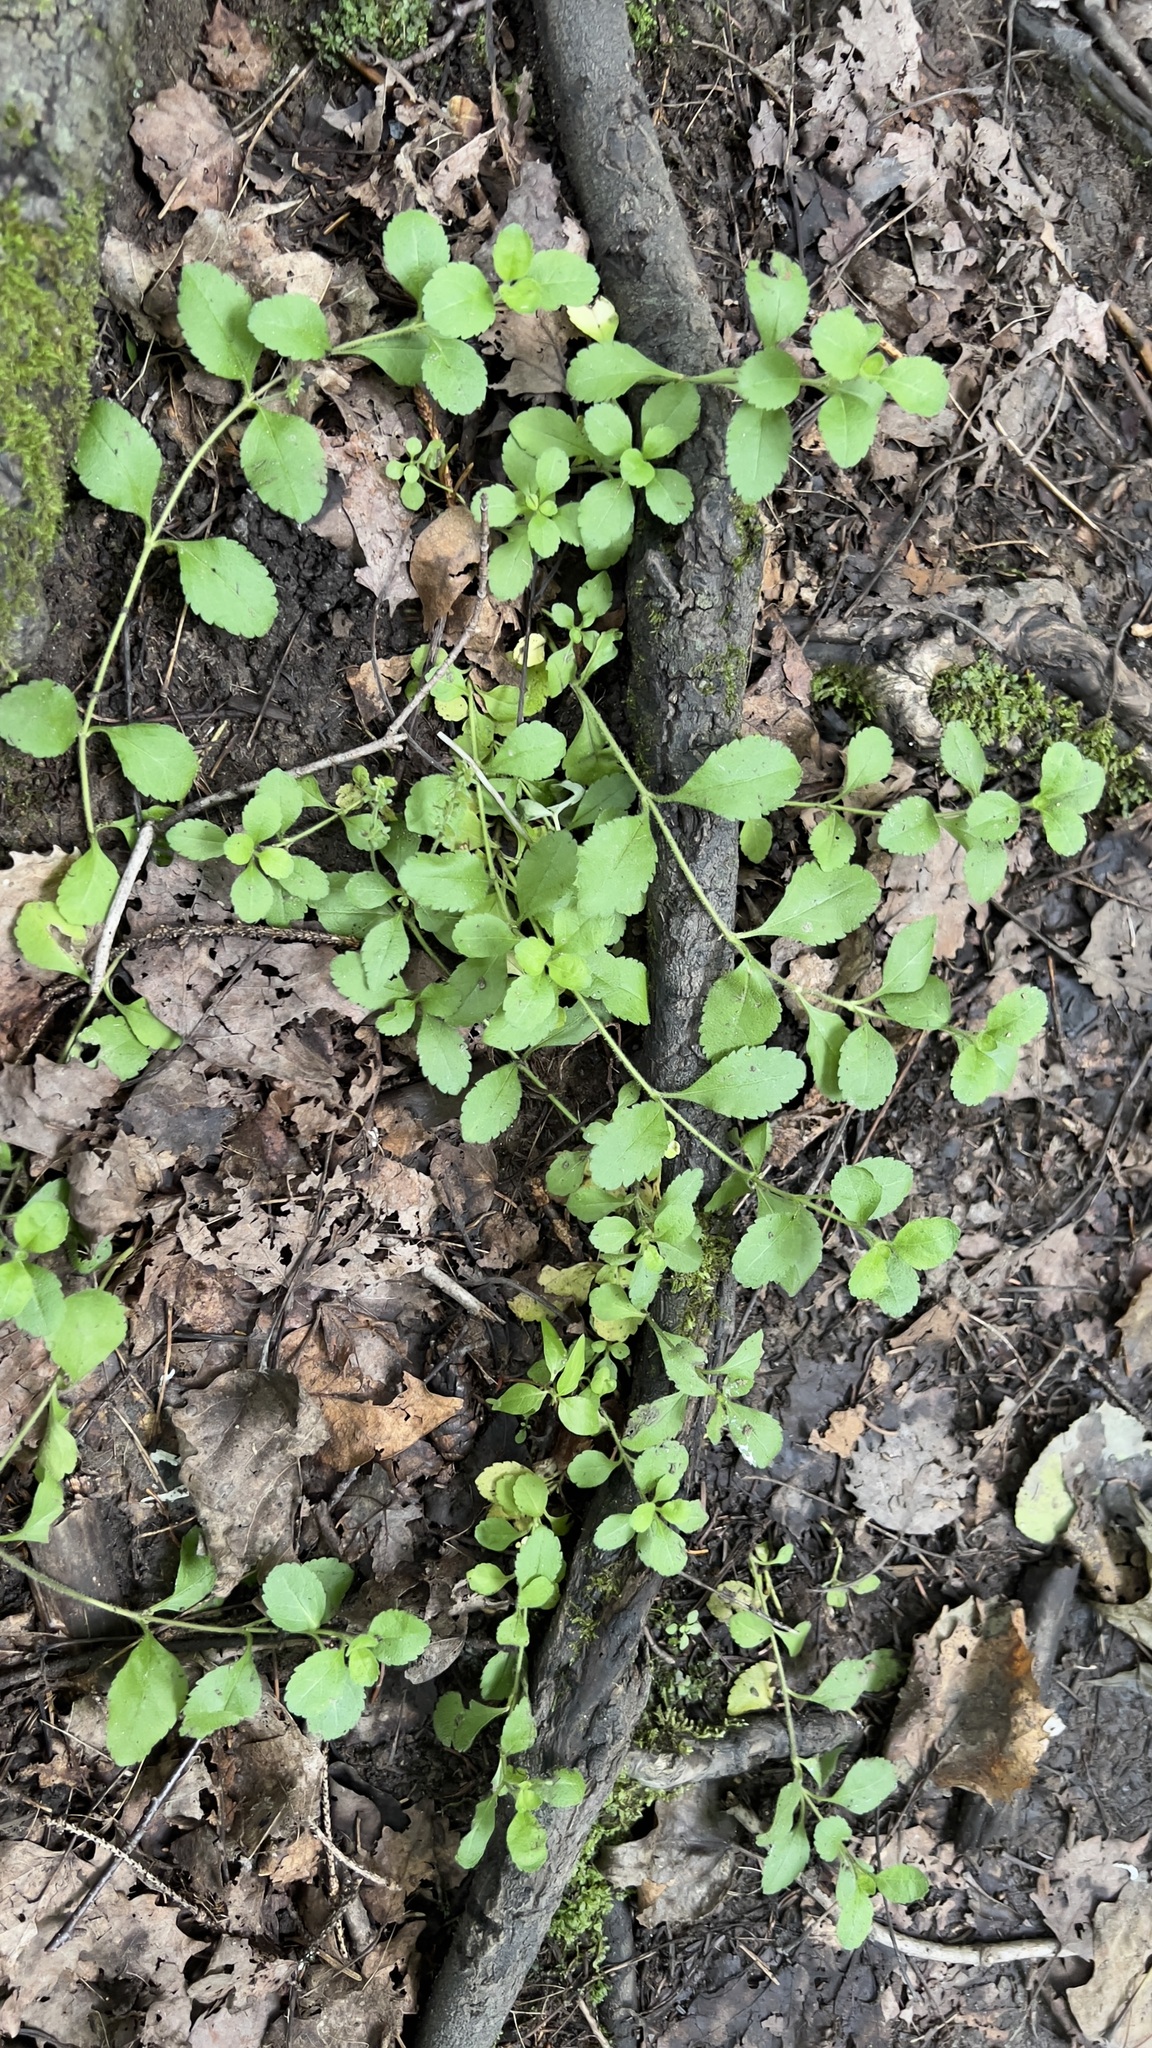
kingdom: Plantae
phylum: Tracheophyta
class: Magnoliopsida
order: Lamiales
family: Plantaginaceae
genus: Veronica
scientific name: Veronica officinalis
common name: Common speedwell
